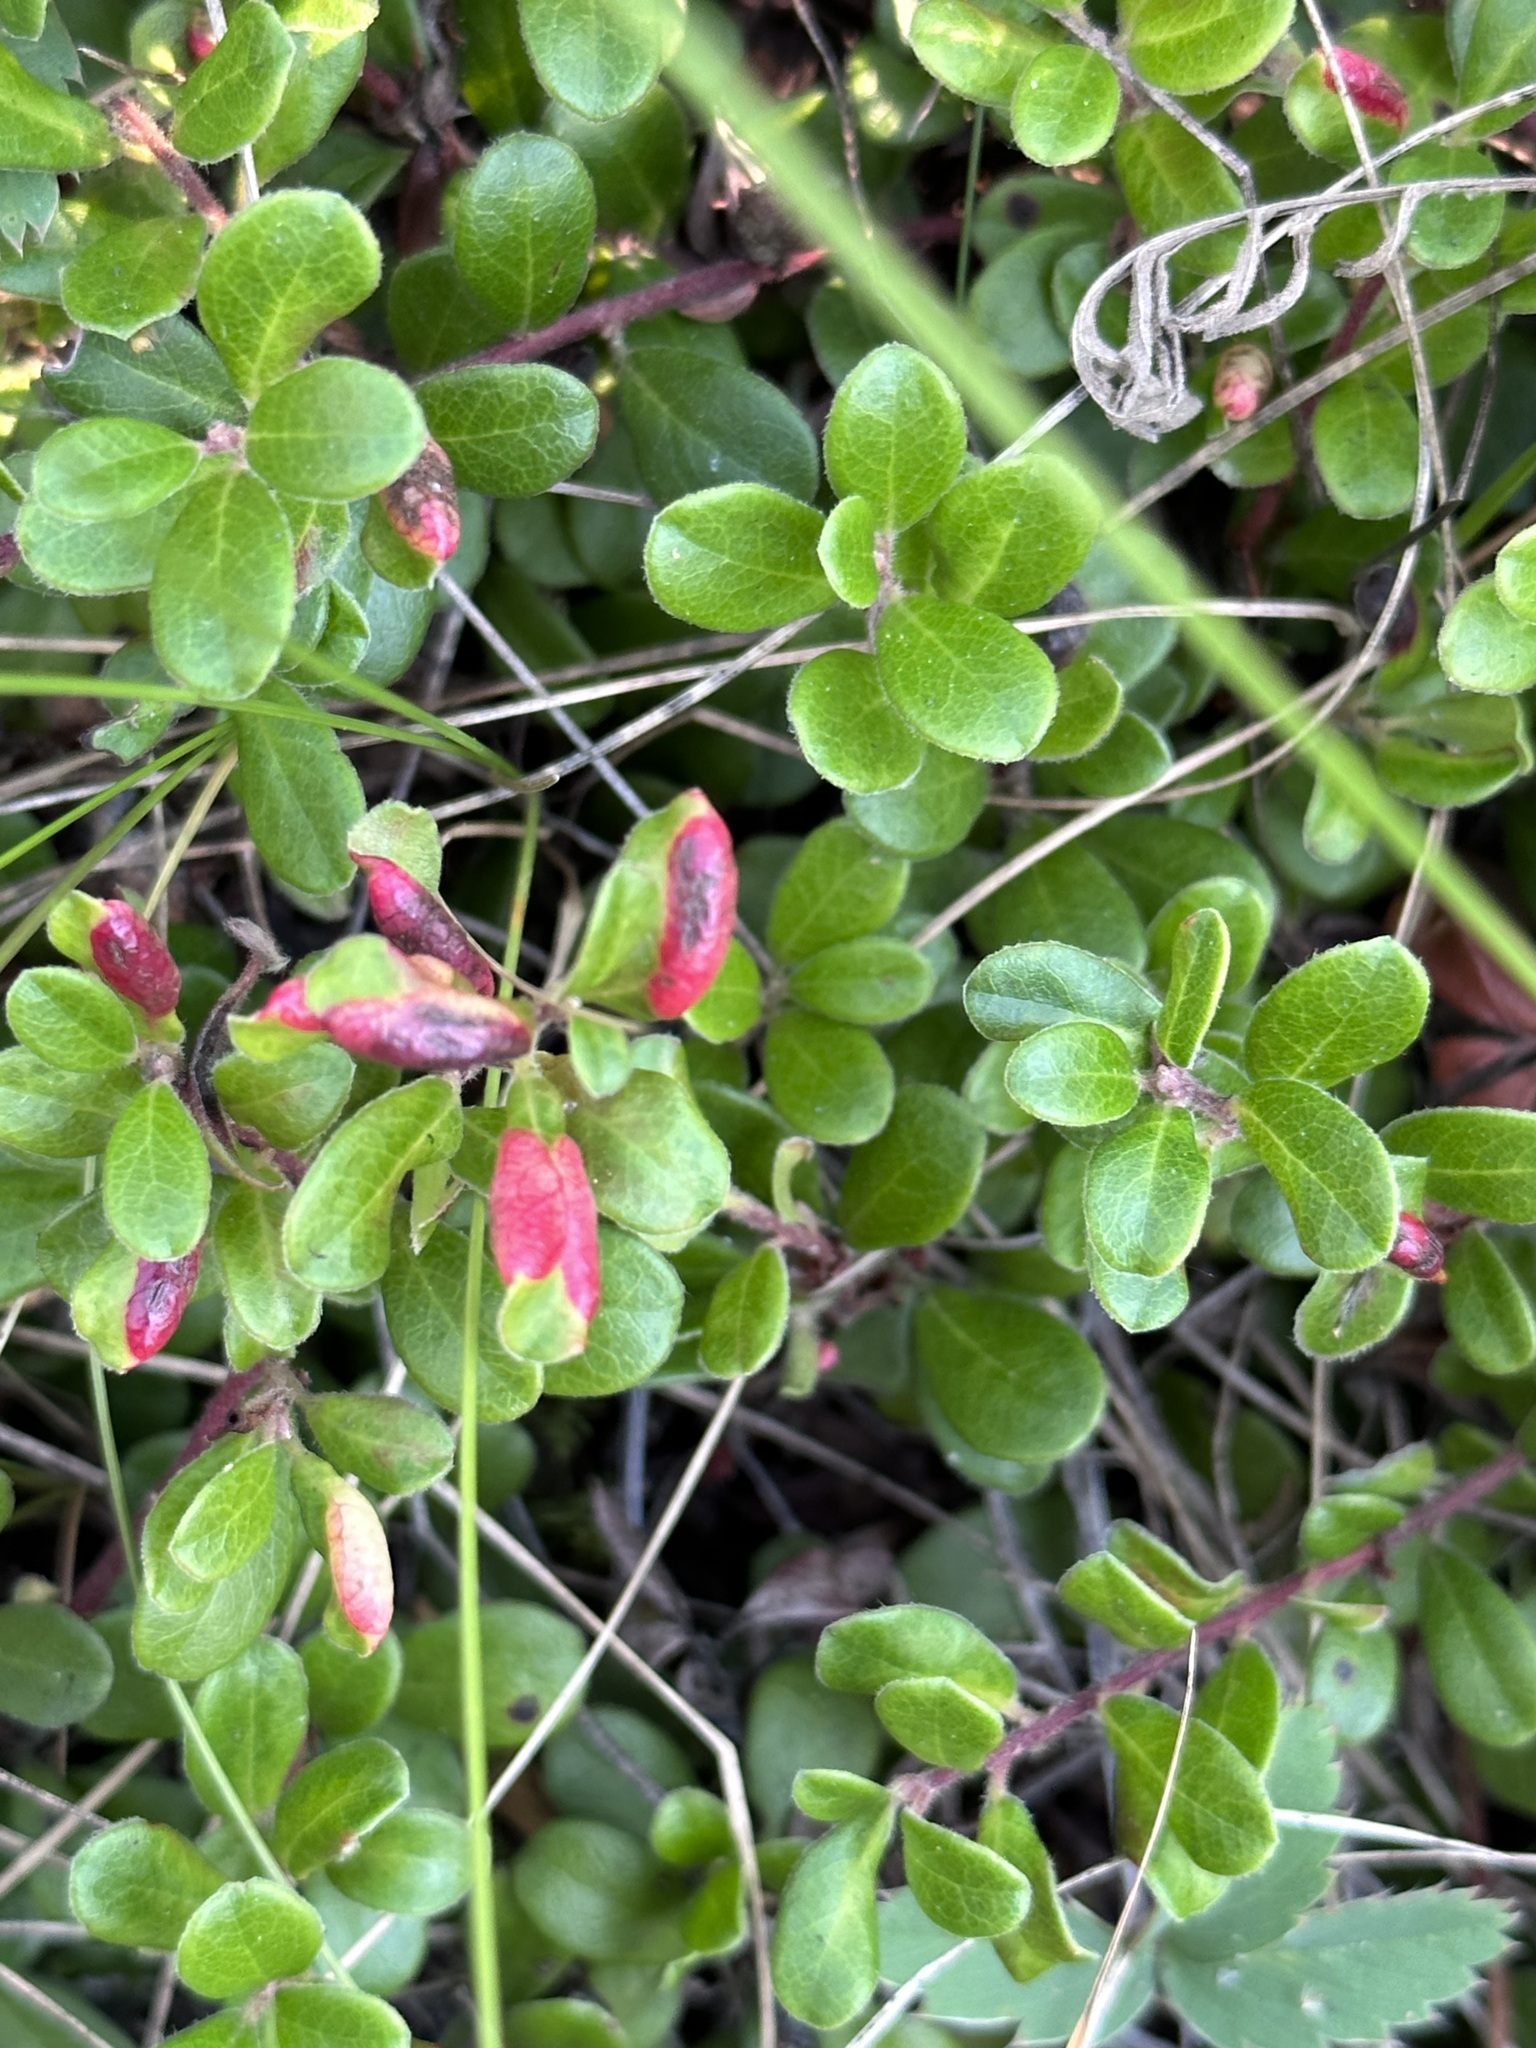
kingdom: Animalia
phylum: Arthropoda
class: Insecta
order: Hemiptera
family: Aphididae
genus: Tamalia
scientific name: Tamalia coweni
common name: Manzanita leafgall aphid
